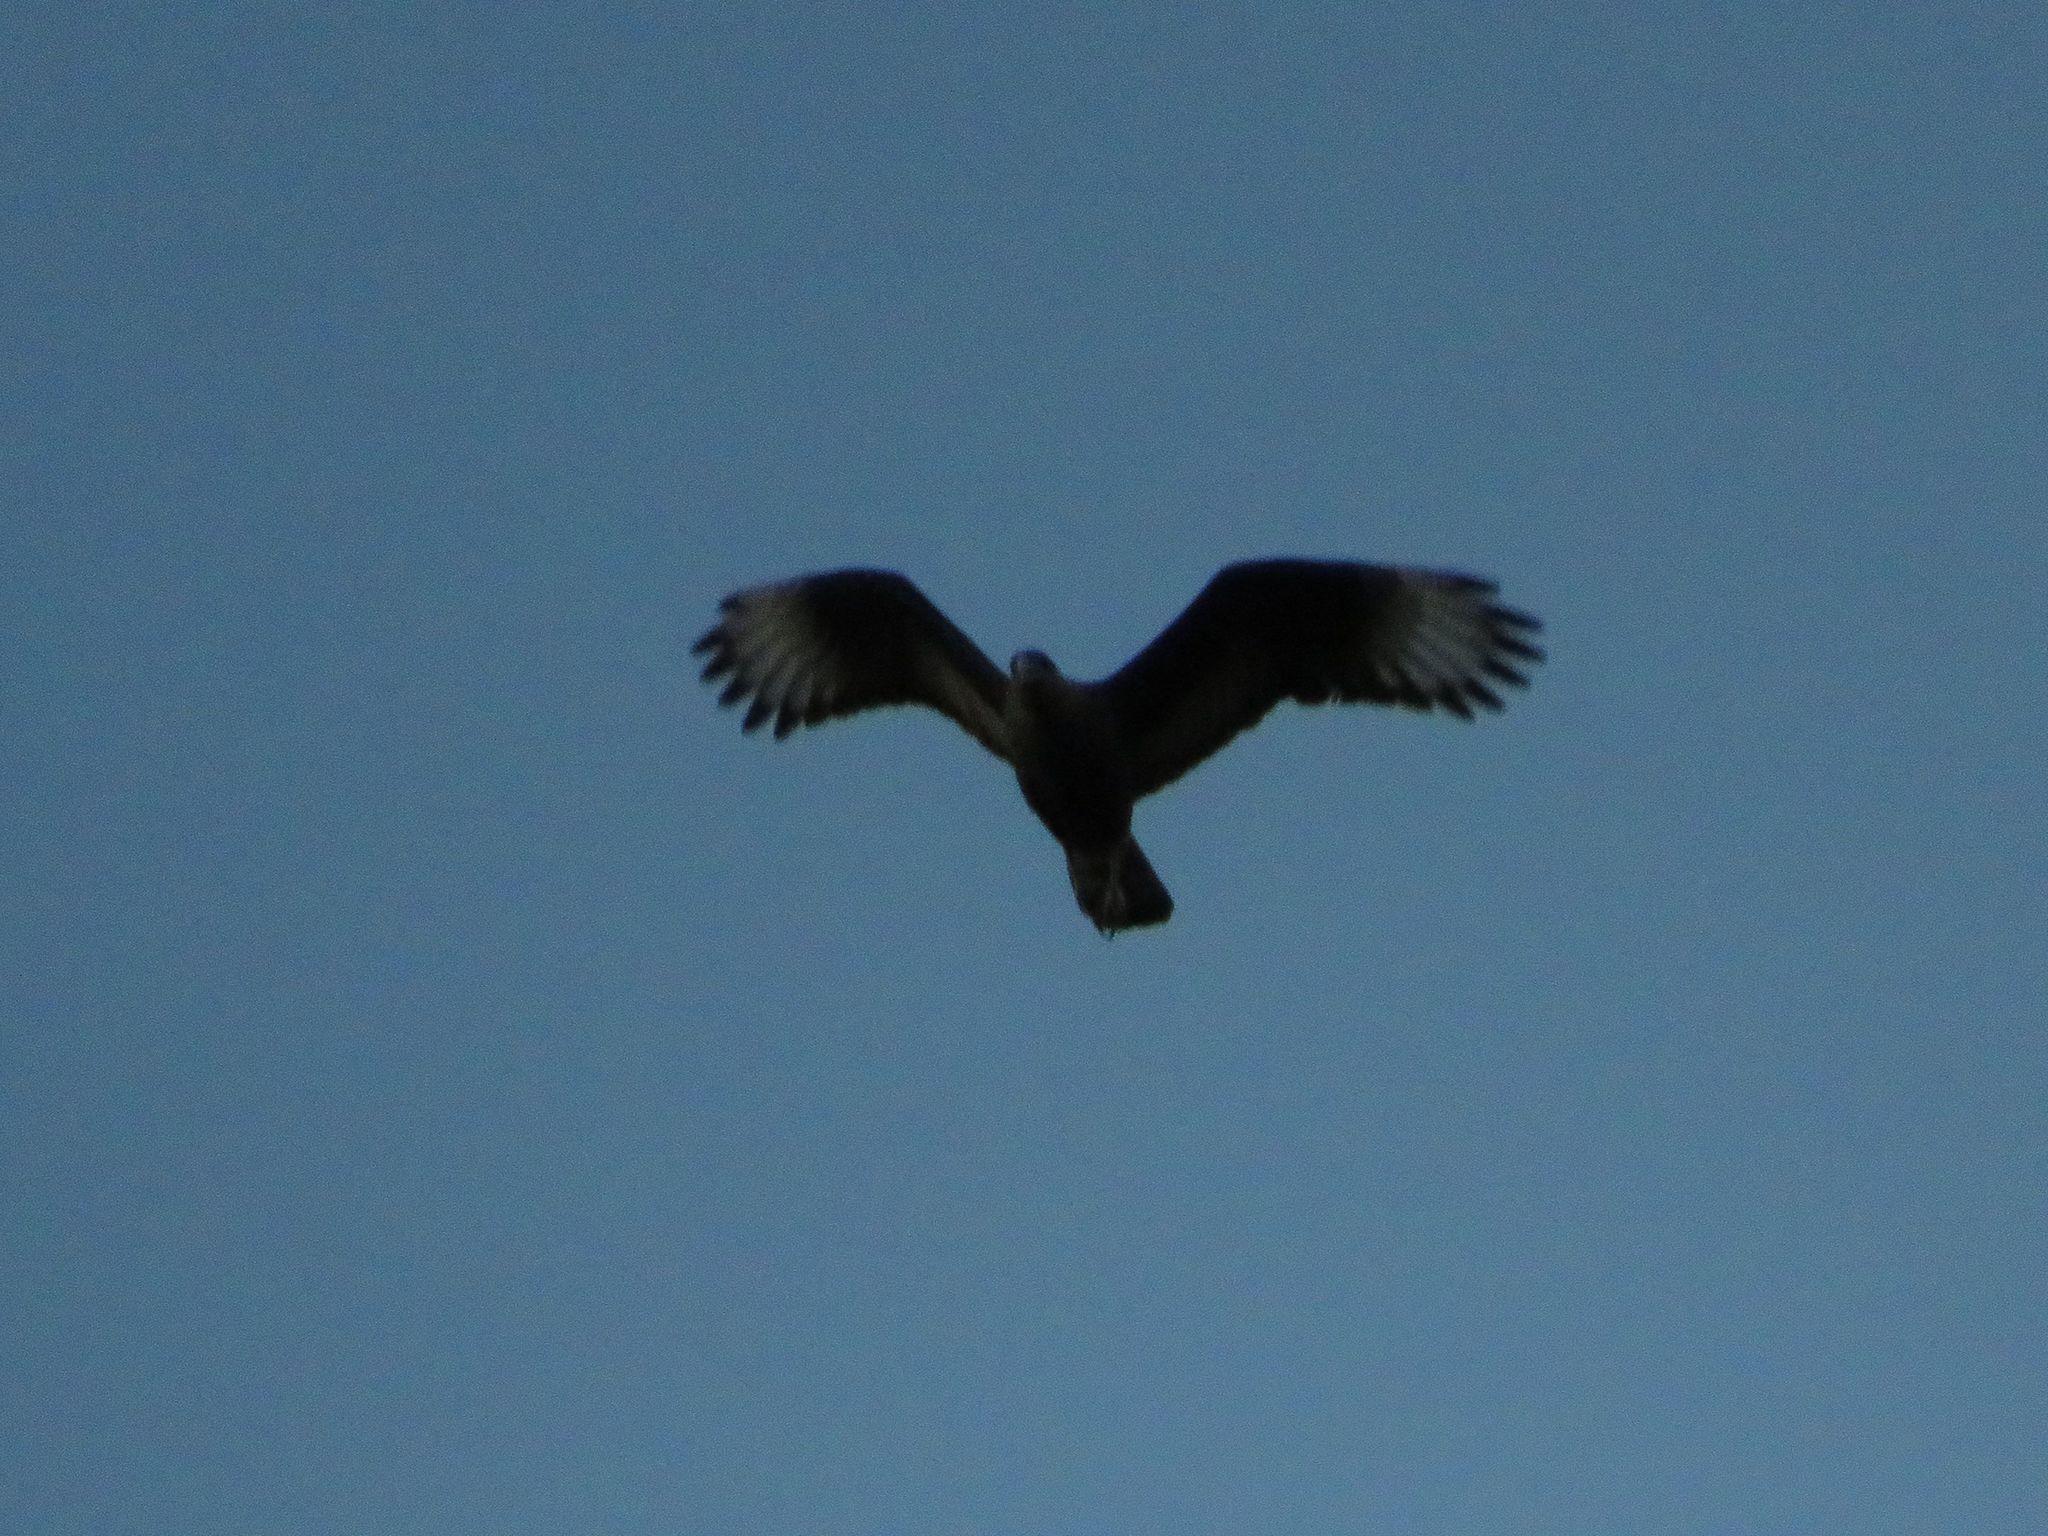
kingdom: Animalia
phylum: Chordata
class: Aves
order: Falconiformes
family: Falconidae
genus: Caracara
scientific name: Caracara plancus
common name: Southern caracara
